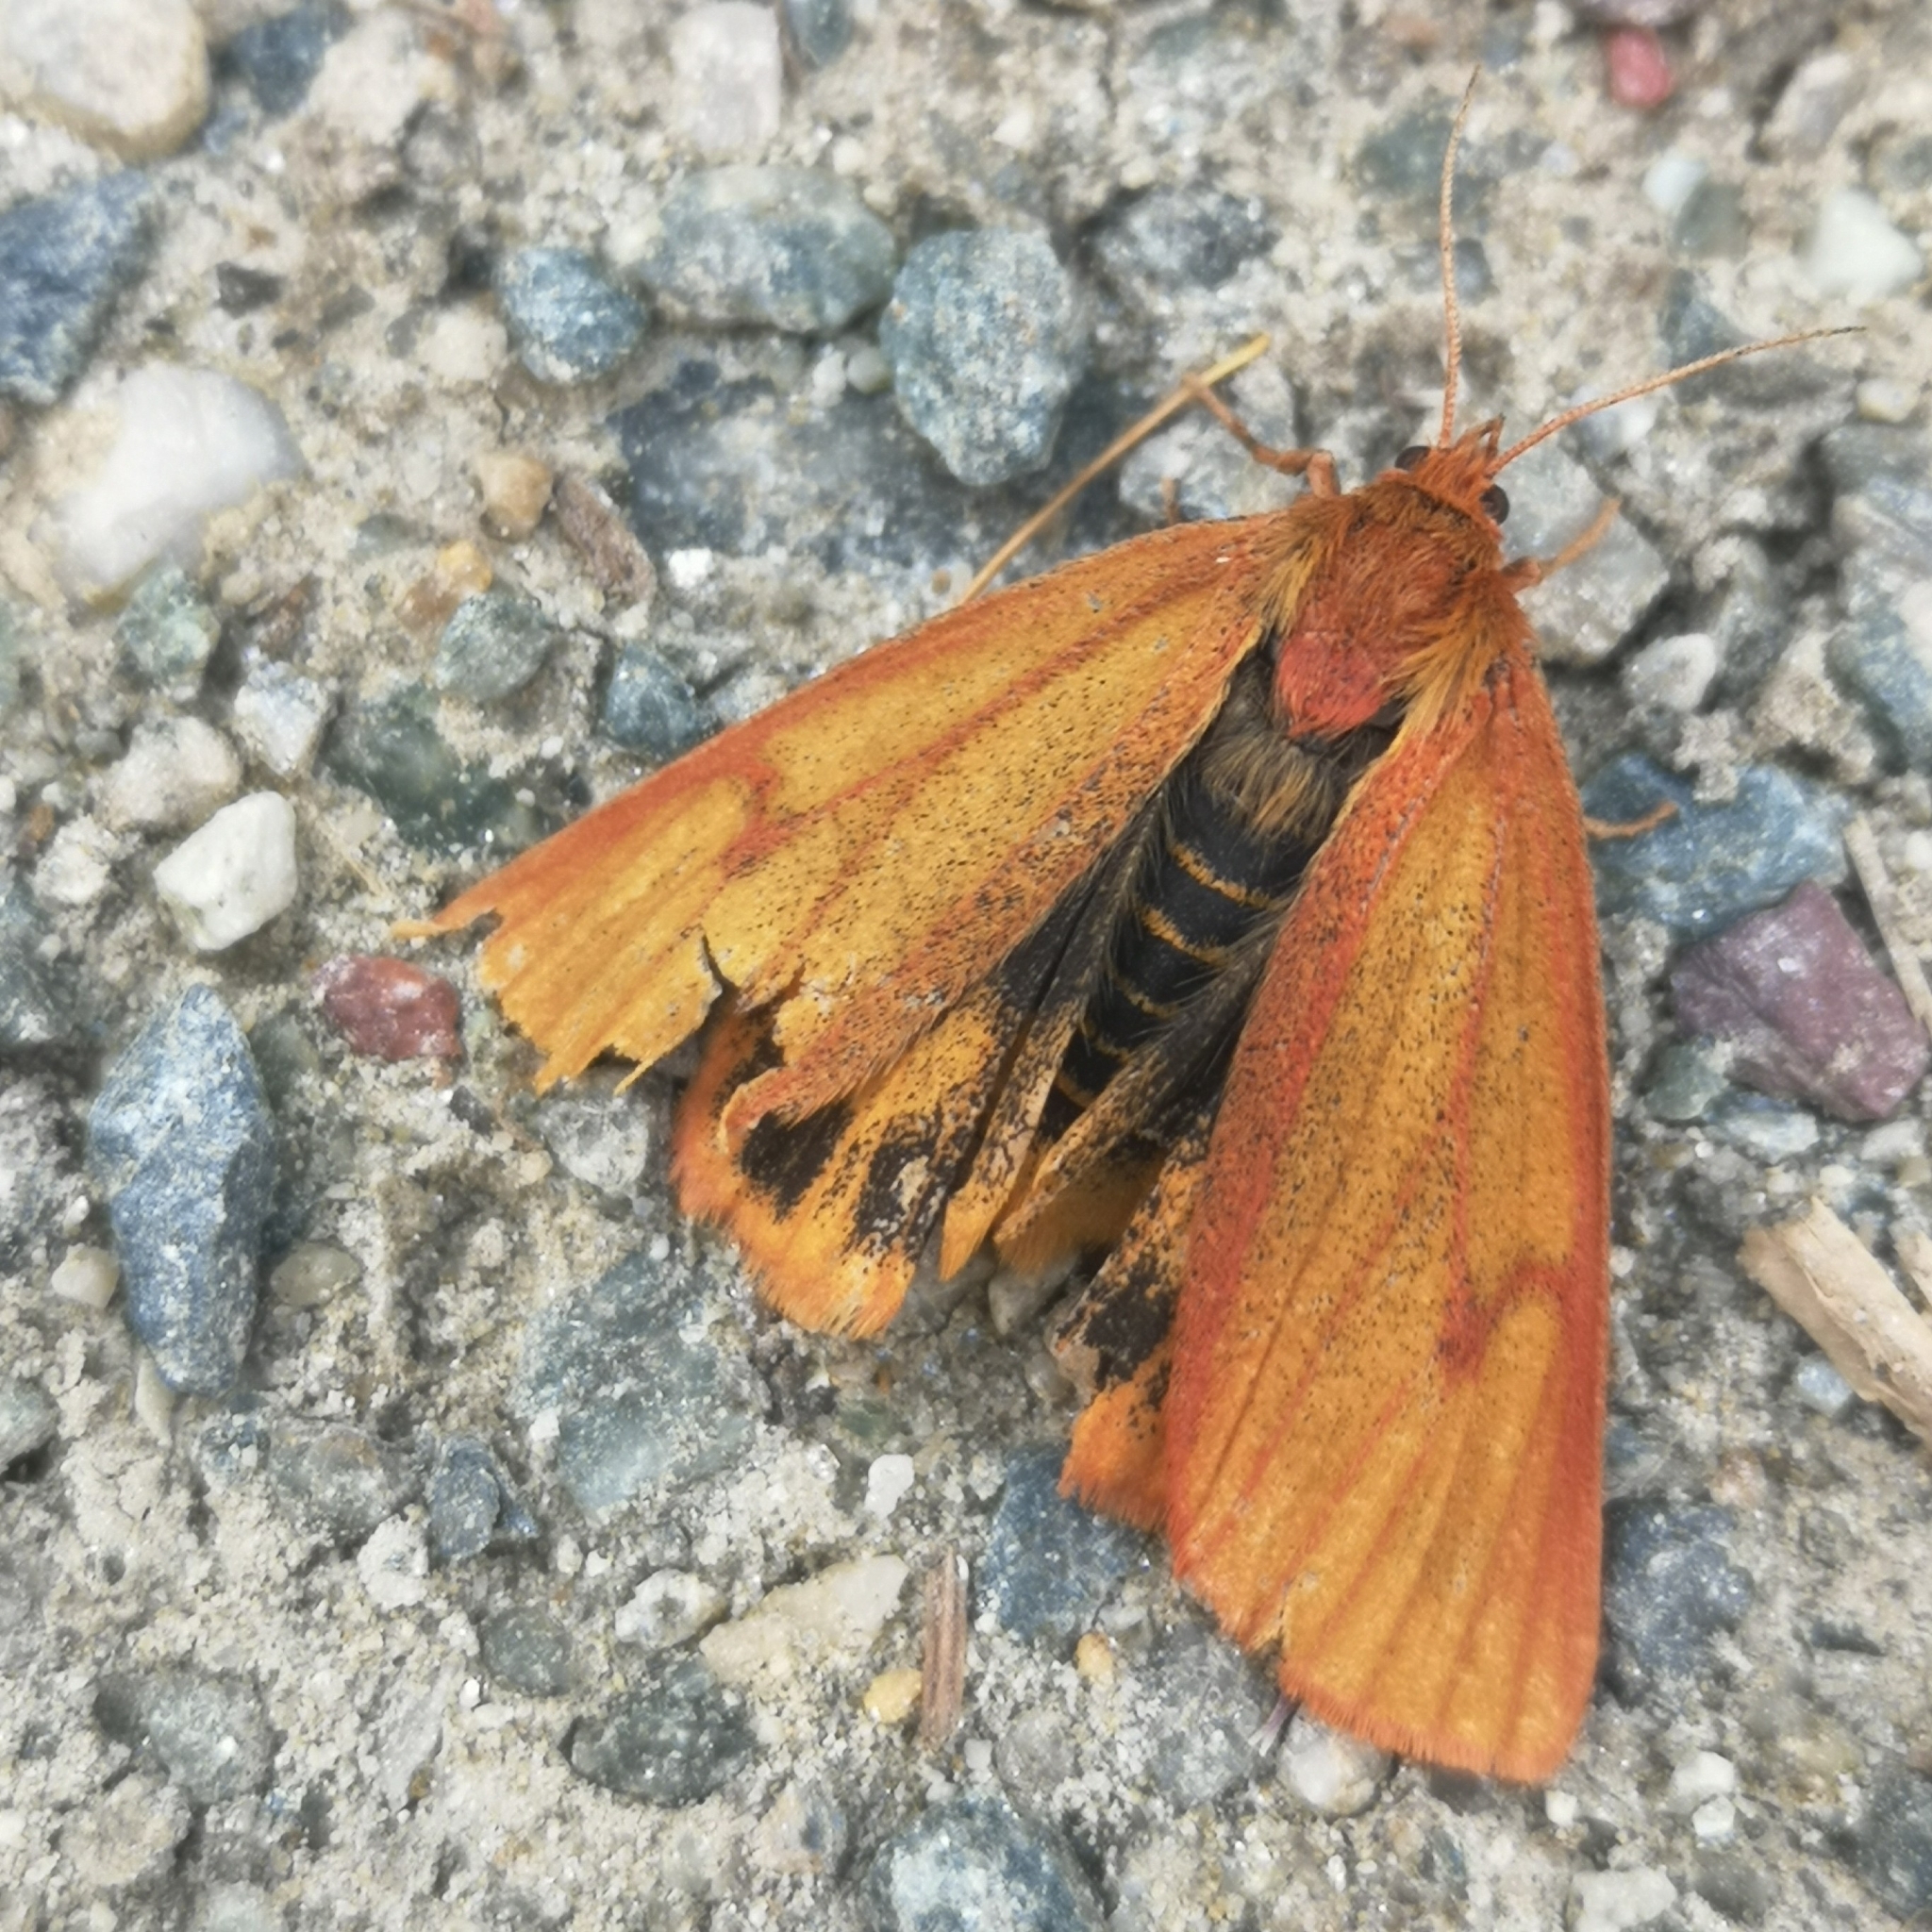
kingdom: Animalia
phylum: Arthropoda
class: Insecta
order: Lepidoptera
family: Erebidae
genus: Diacrisia
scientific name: Diacrisia sannio
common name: Clouded buff
